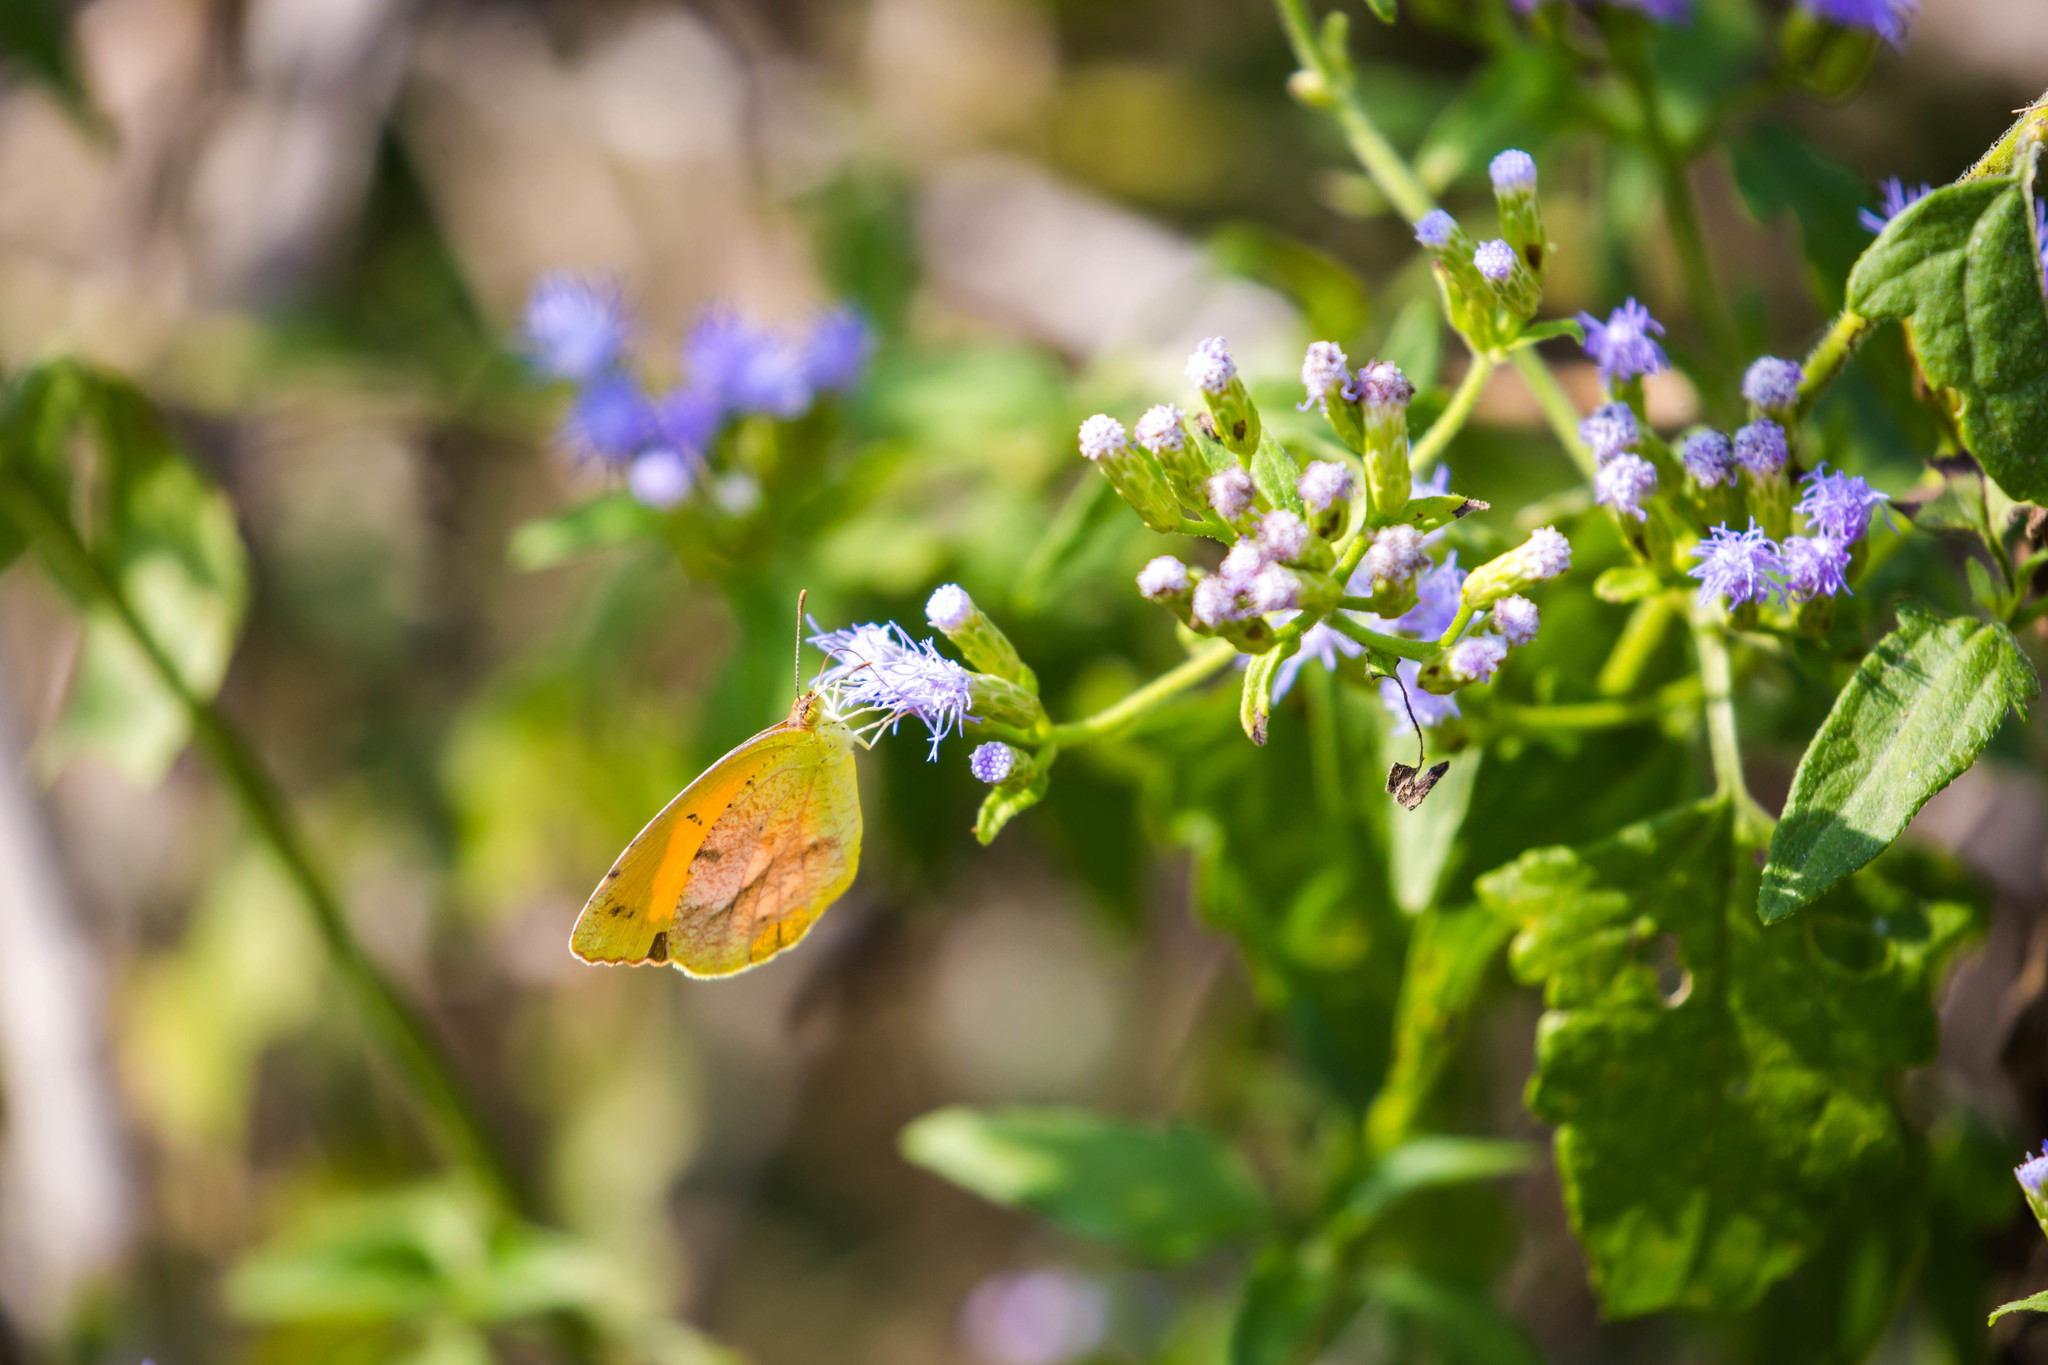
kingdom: Animalia
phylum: Arthropoda
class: Insecta
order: Lepidoptera
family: Pieridae
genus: Abaeis
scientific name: Abaeis nicippe
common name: Sleepy orange
